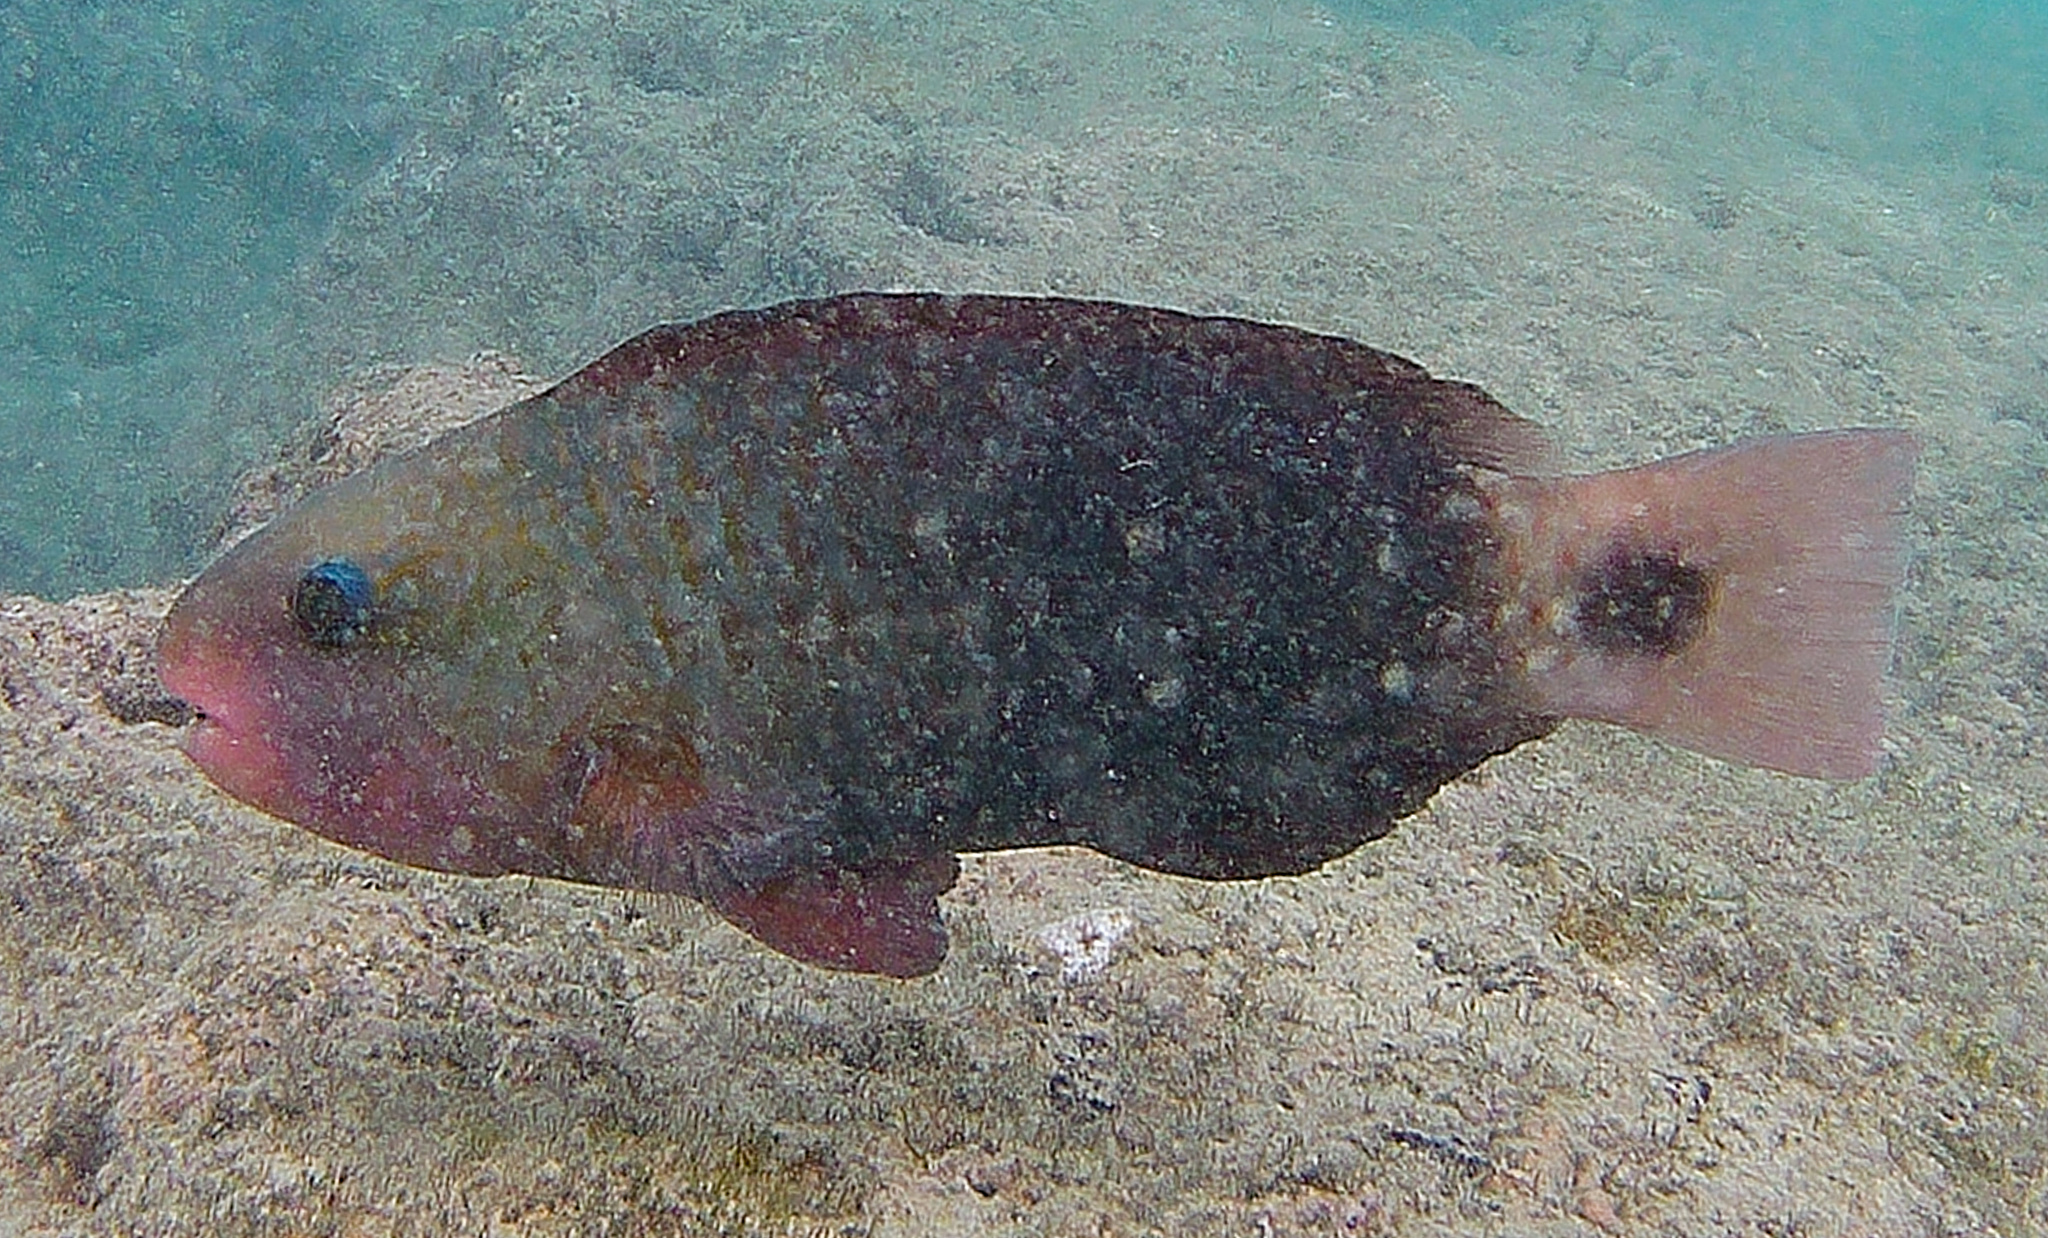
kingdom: Animalia
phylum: Chordata
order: Perciformes
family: Scaridae
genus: Chlorurus
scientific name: Chlorurus spilurus
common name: Bullethead parrotfish
